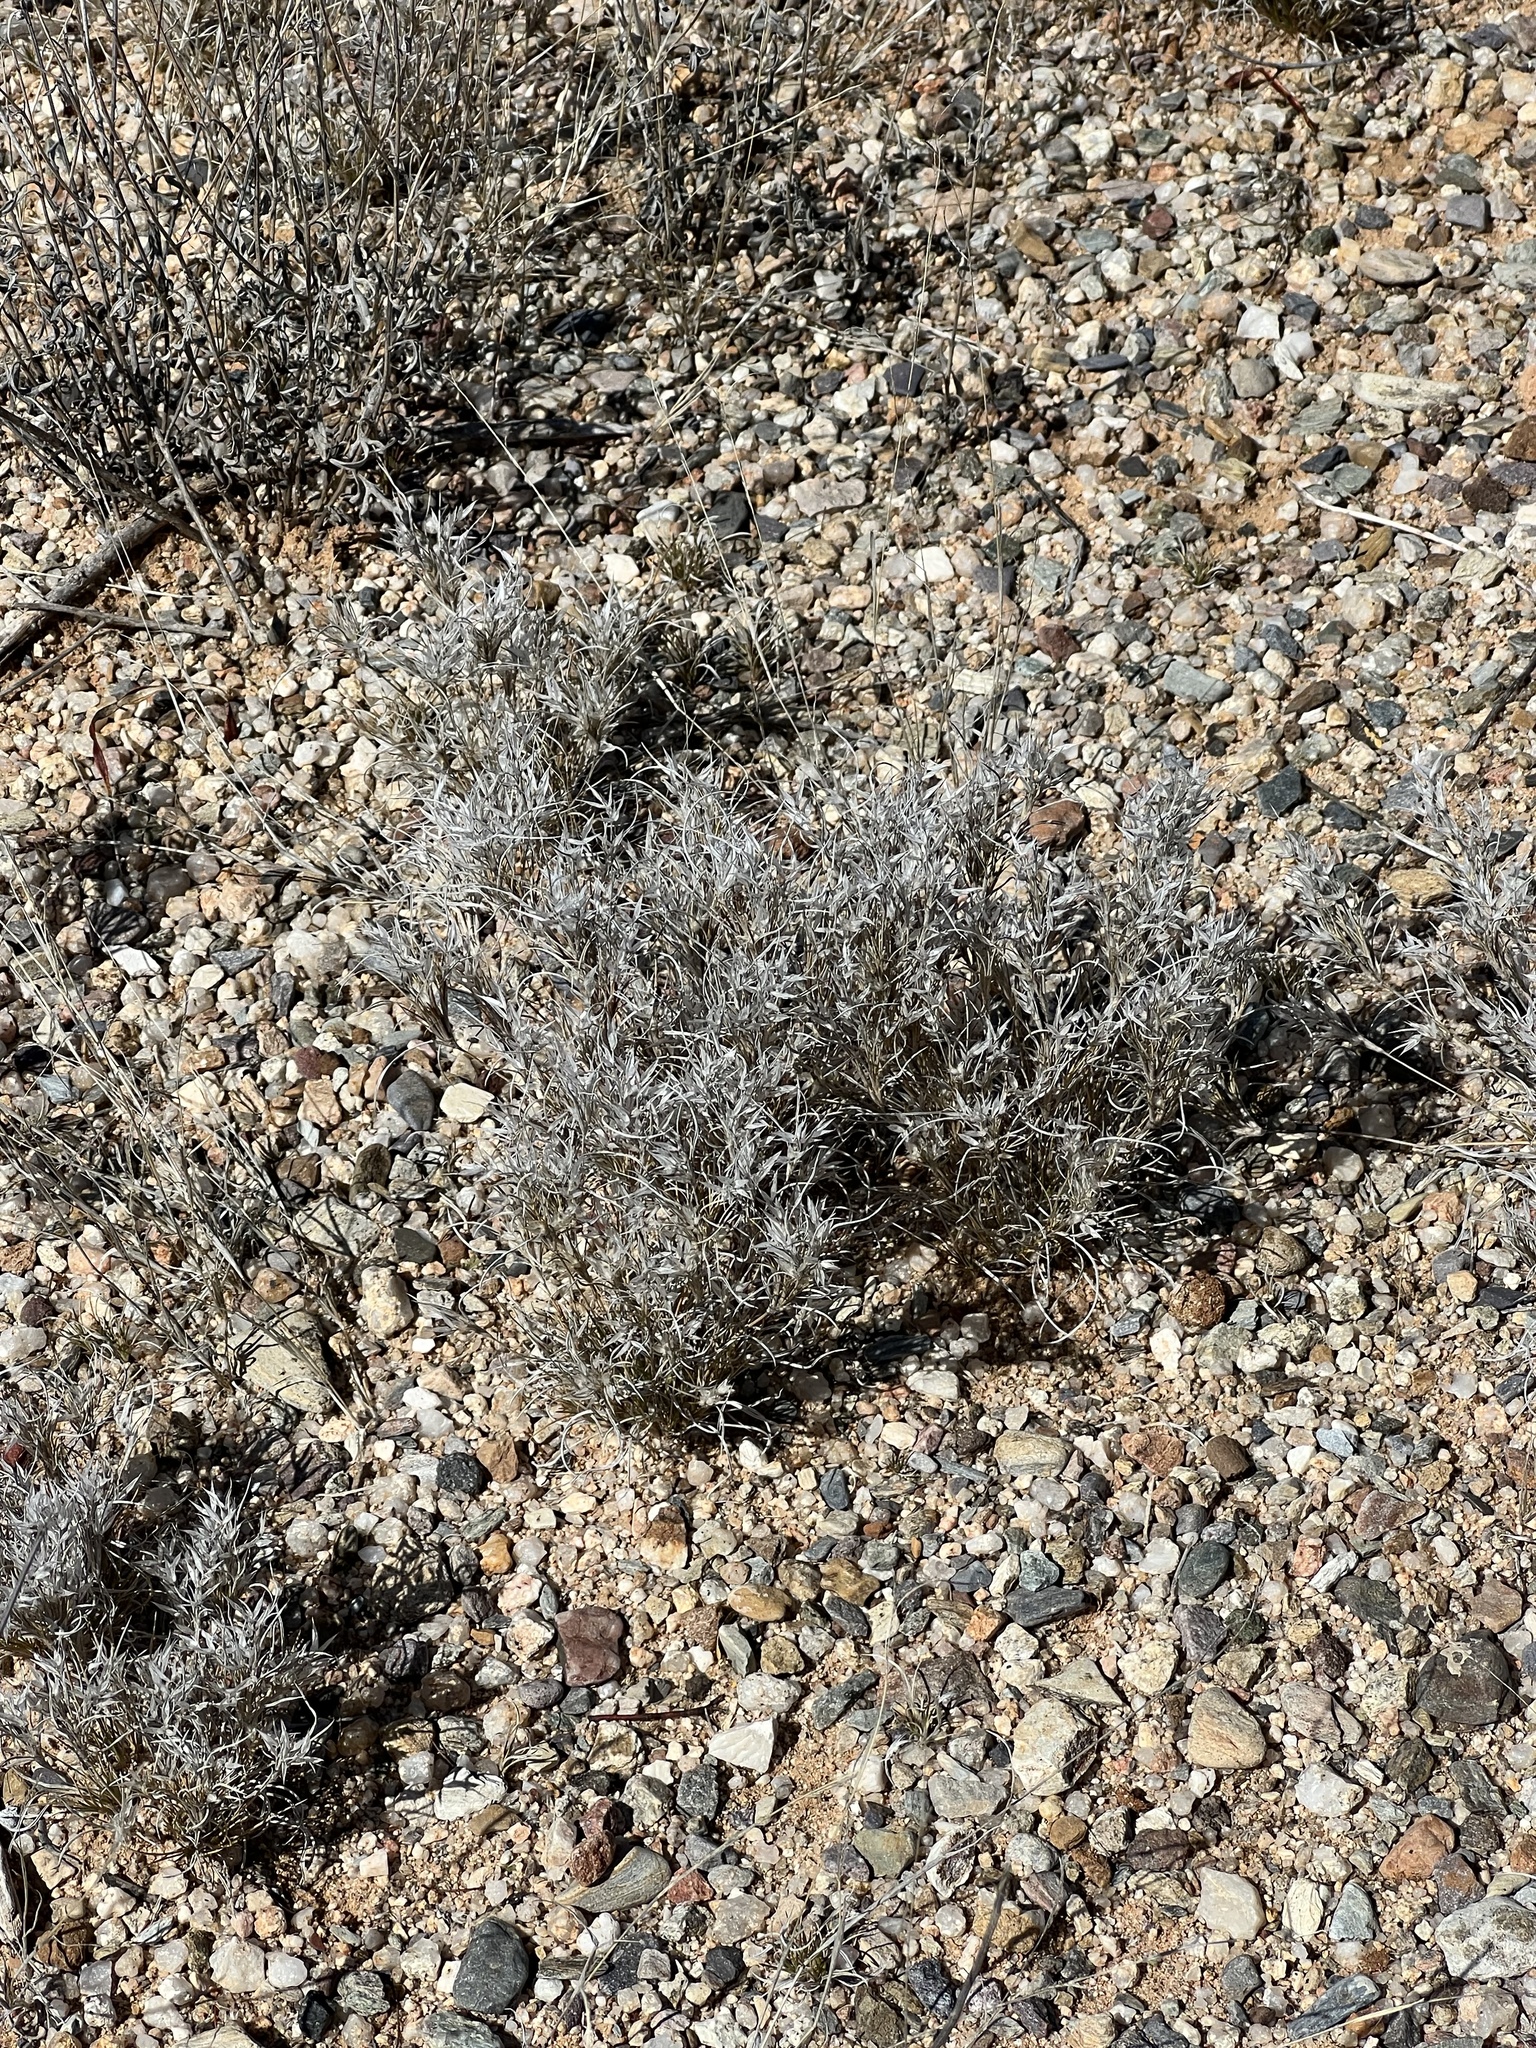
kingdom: Plantae
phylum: Tracheophyta
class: Liliopsida
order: Poales
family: Poaceae
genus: Dasyochloa
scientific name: Dasyochloa pulchella
